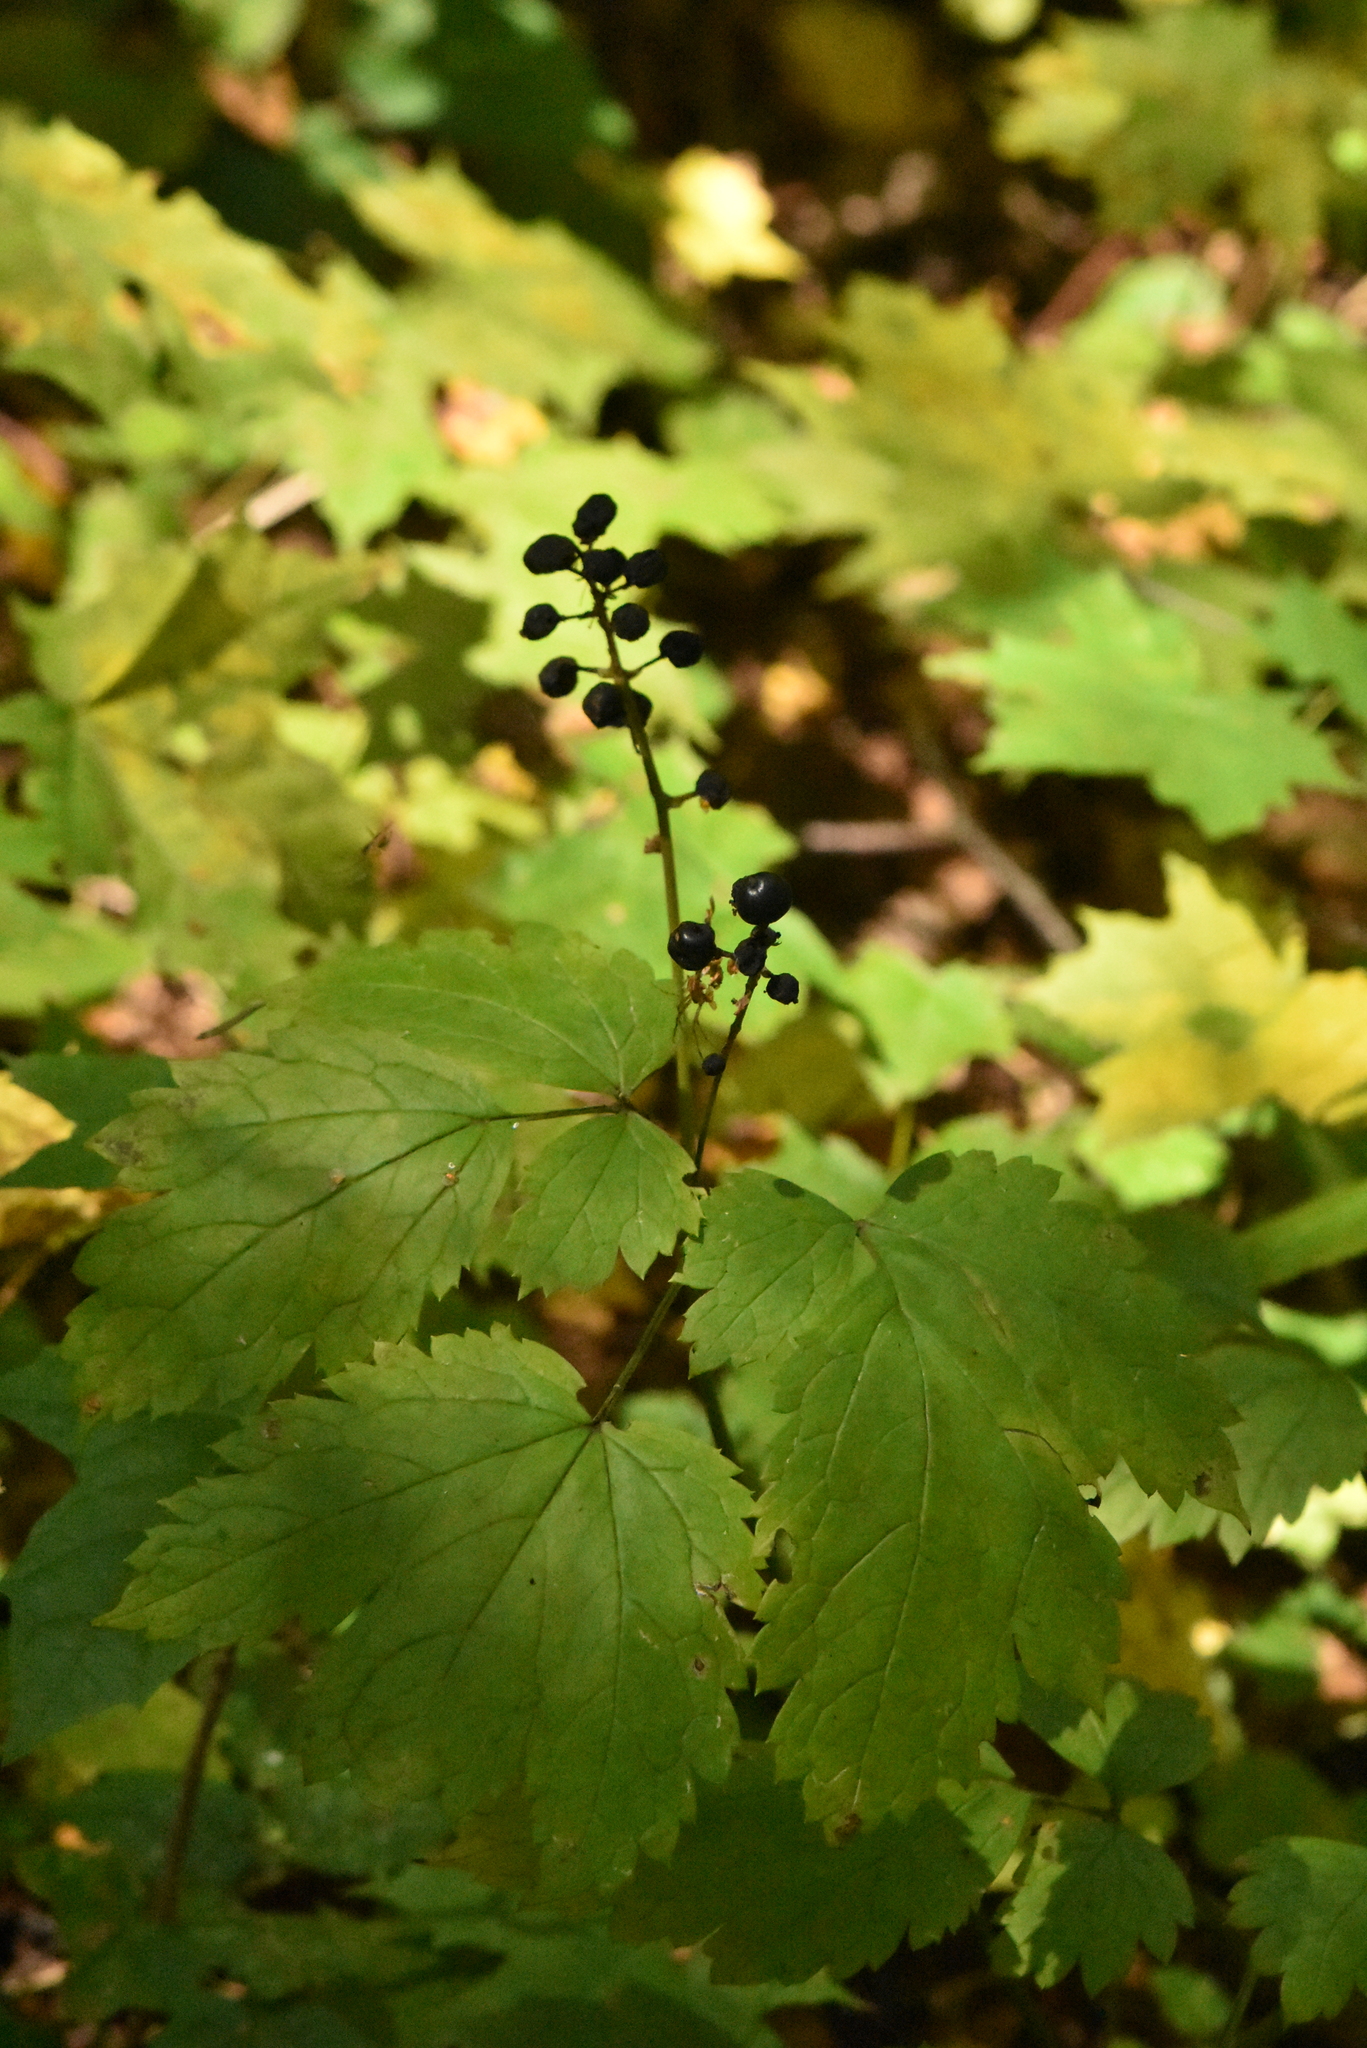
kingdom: Plantae
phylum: Tracheophyta
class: Magnoliopsida
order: Ranunculales
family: Ranunculaceae
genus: Actaea
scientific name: Actaea spicata
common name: Baneberry
